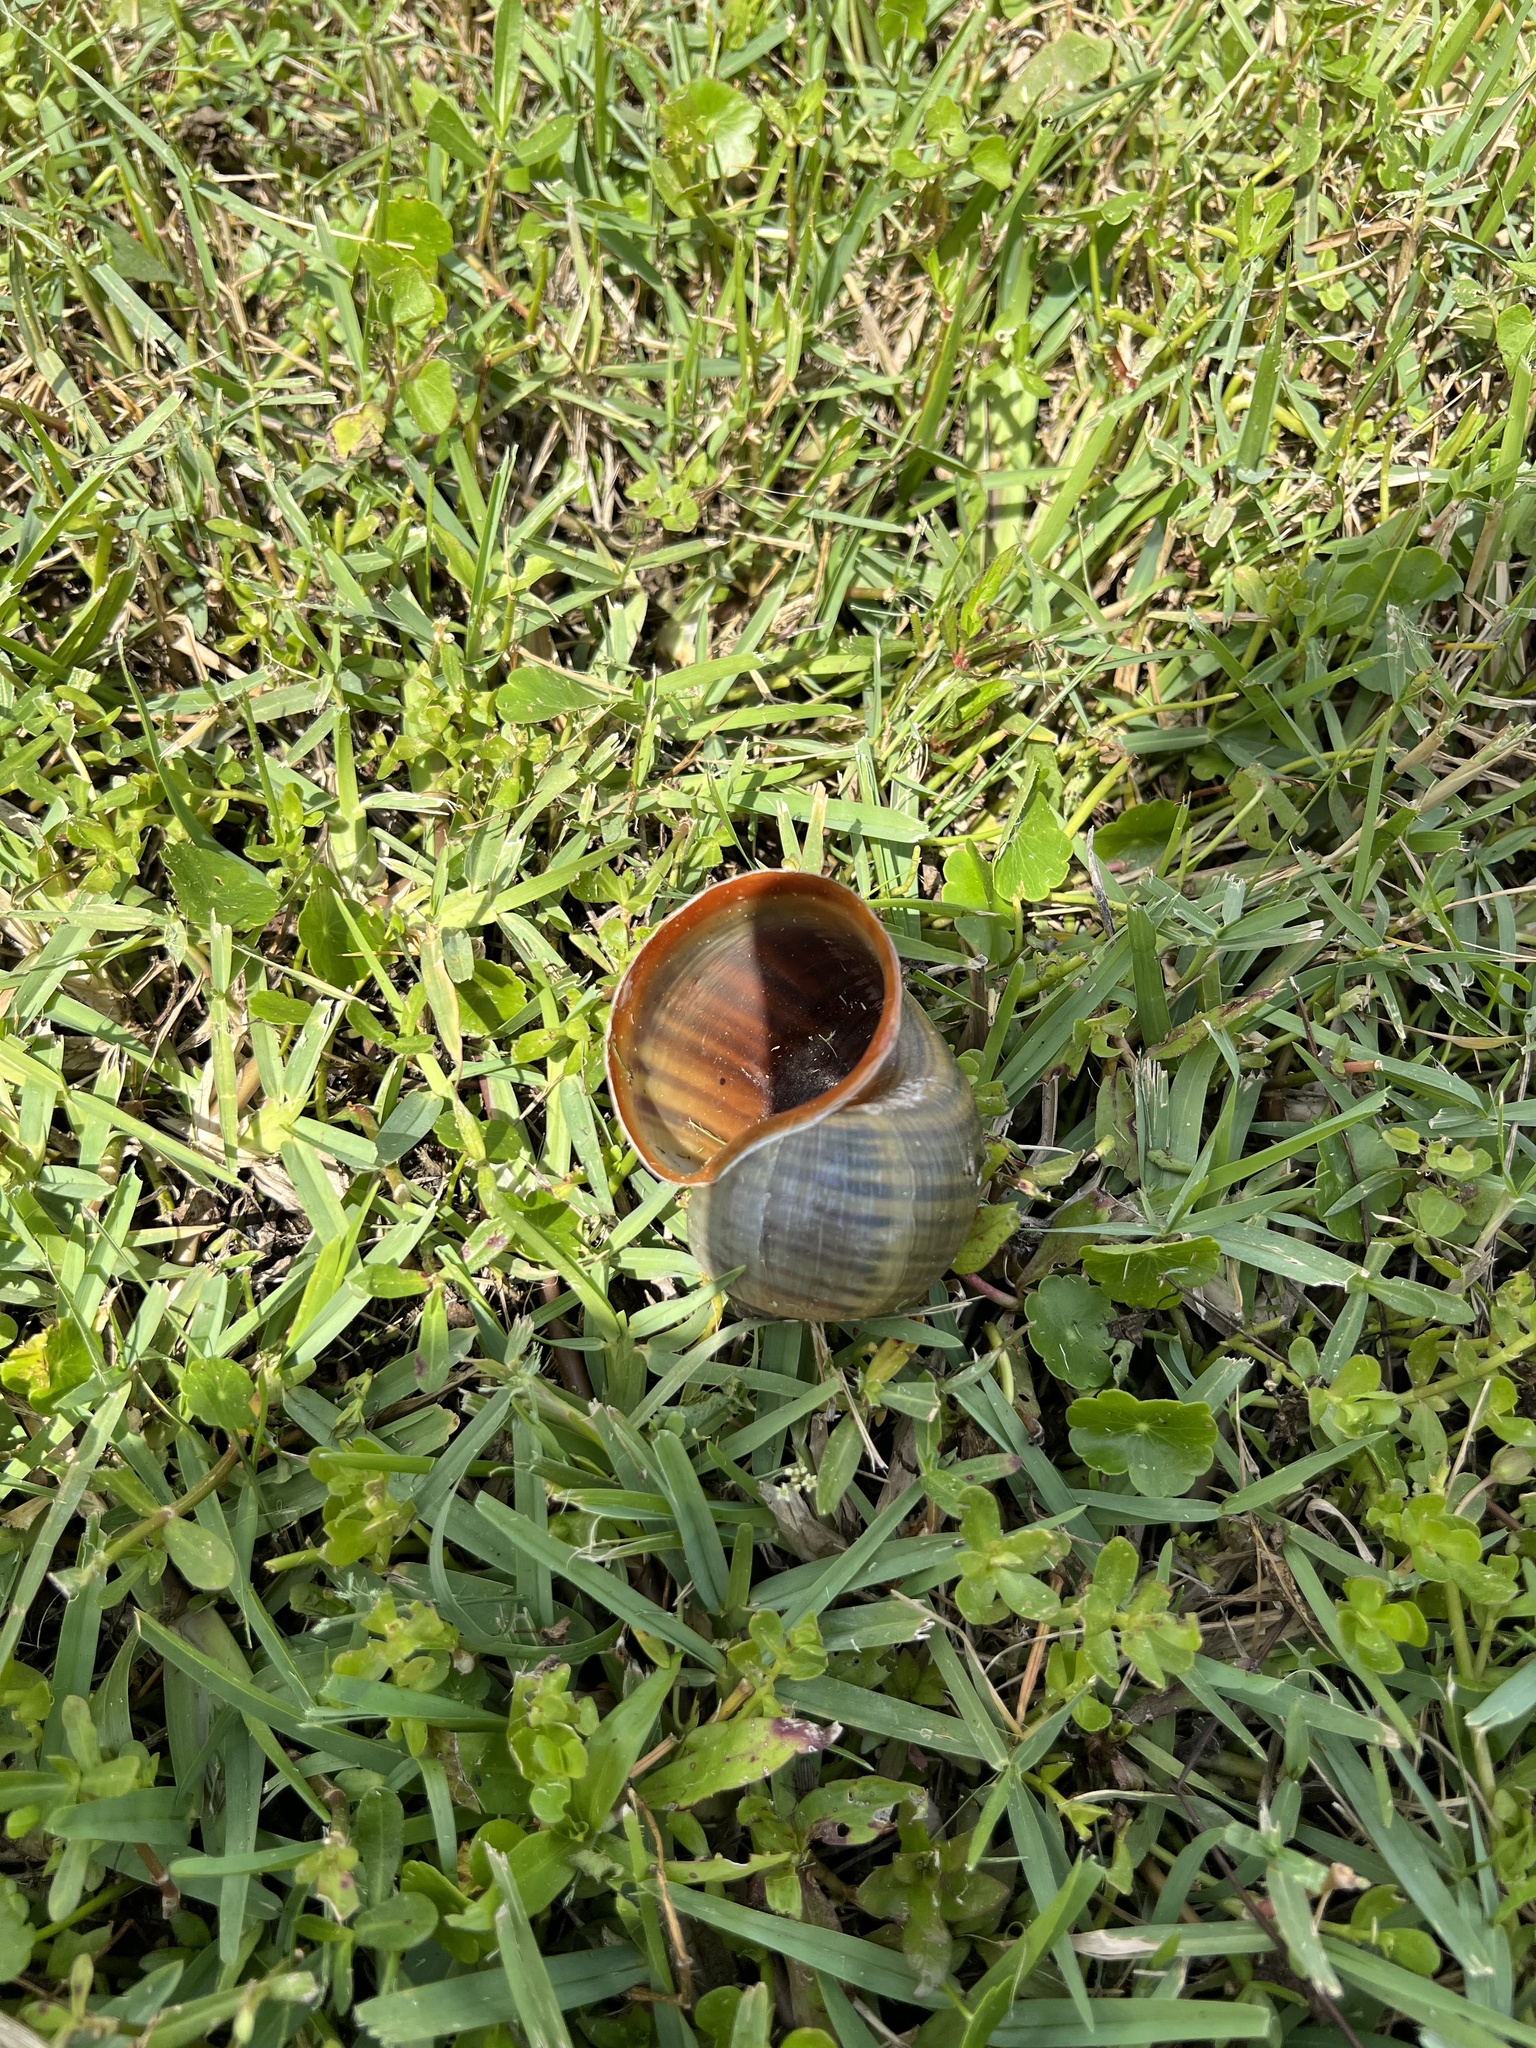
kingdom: Animalia
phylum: Mollusca
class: Gastropoda
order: Architaenioglossa
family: Ampullariidae
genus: Pomacea
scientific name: Pomacea maculata
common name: Giant applesnail
